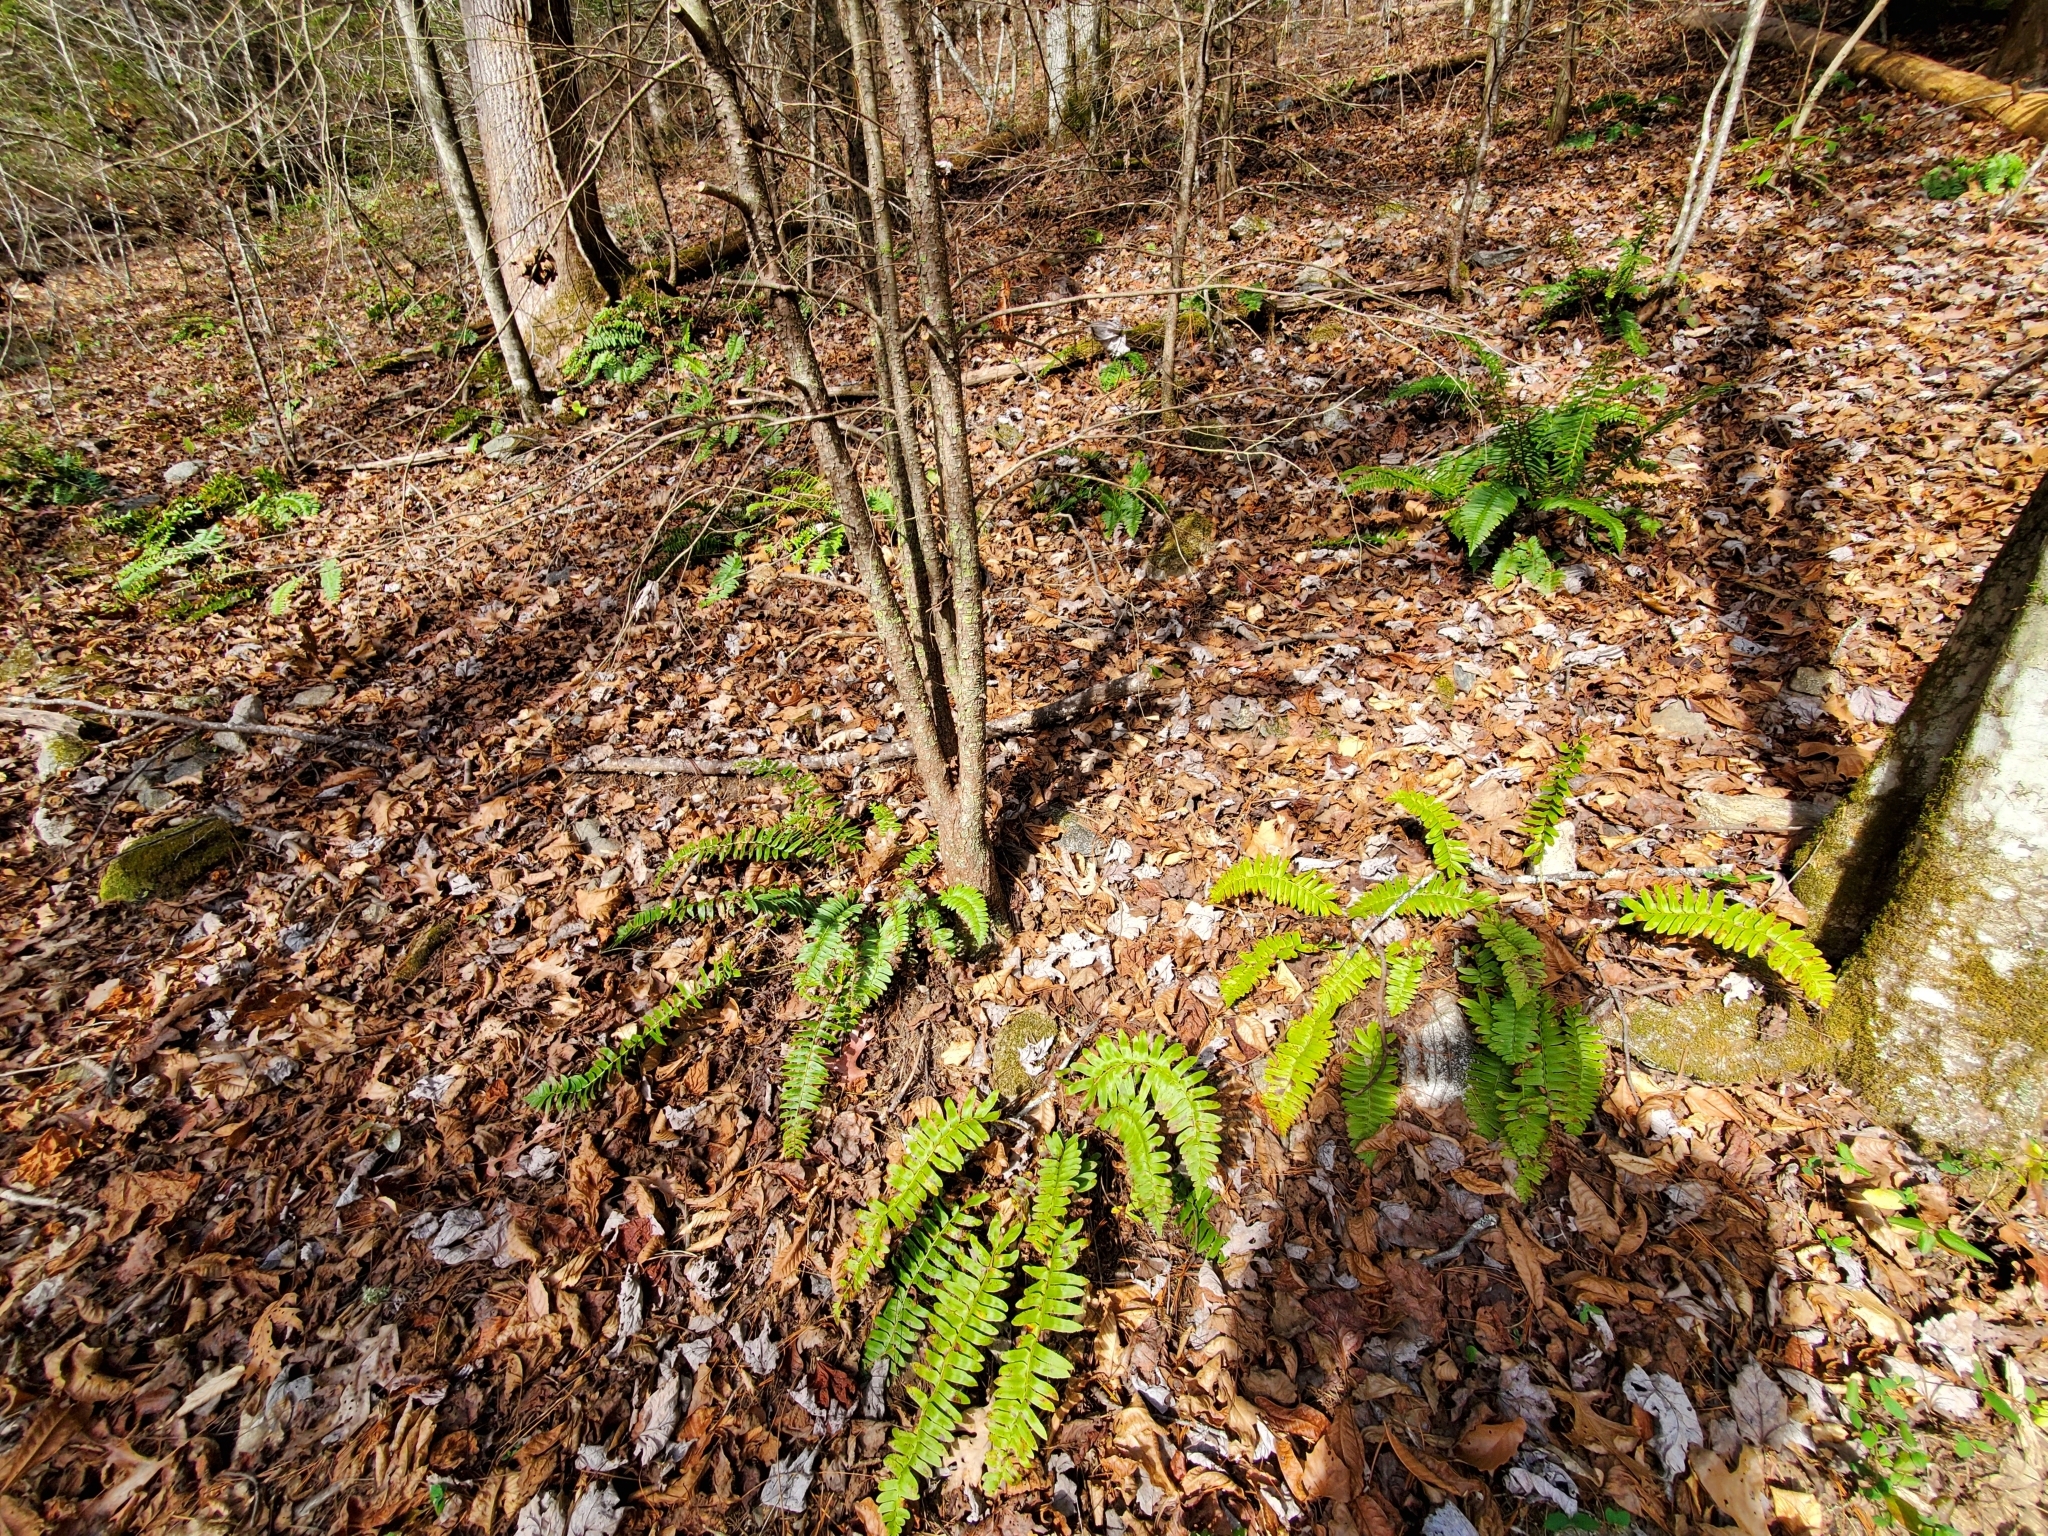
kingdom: Plantae
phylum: Tracheophyta
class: Polypodiopsida
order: Polypodiales
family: Dryopteridaceae
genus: Polystichum
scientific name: Polystichum acrostichoides
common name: Christmas fern
